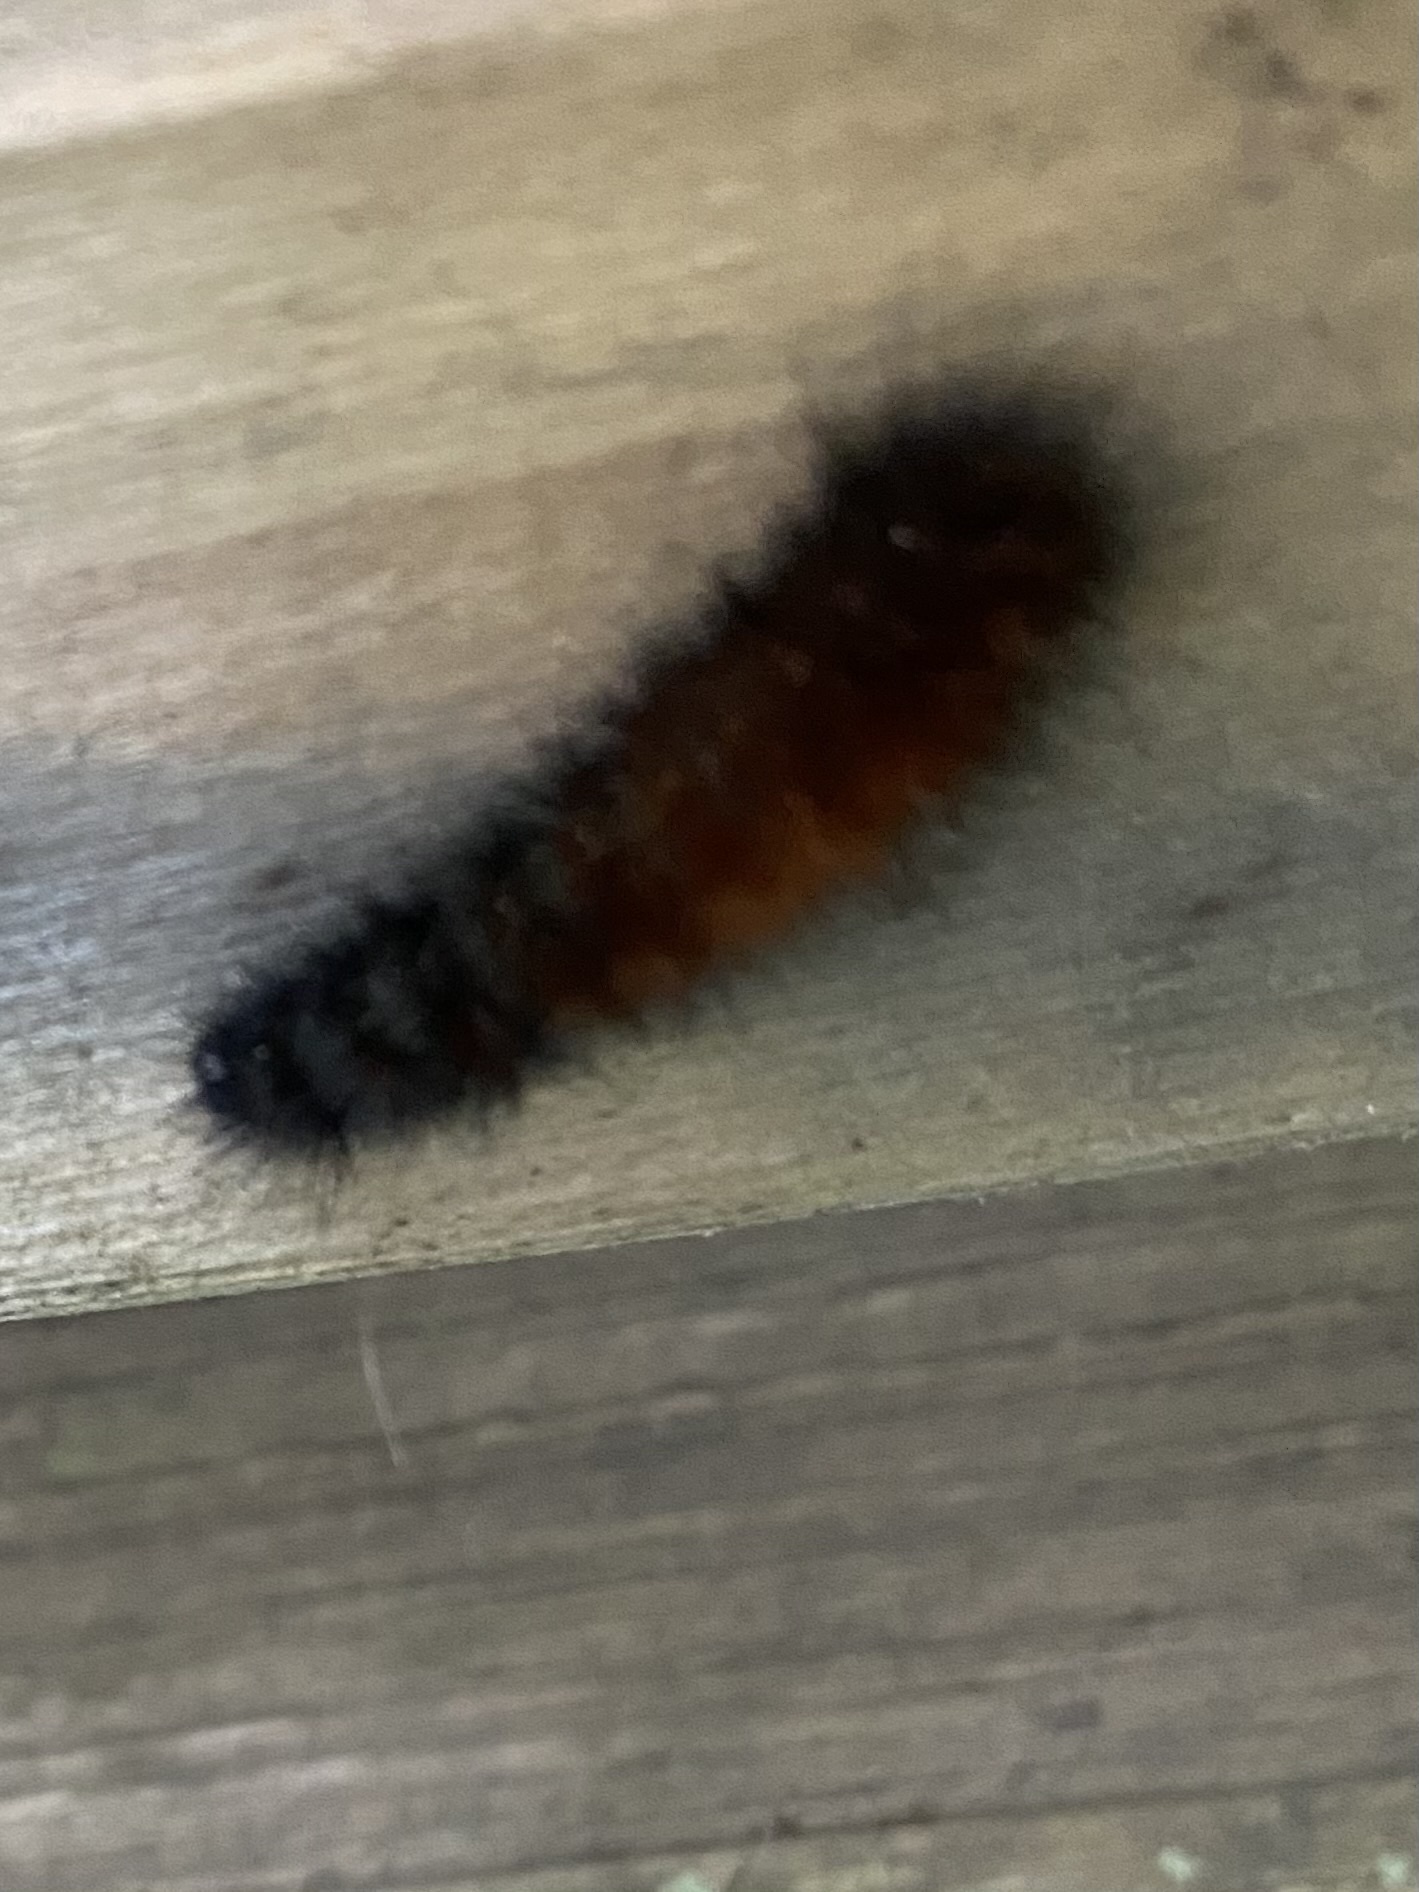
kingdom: Animalia
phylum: Arthropoda
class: Insecta
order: Lepidoptera
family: Erebidae
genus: Pyrrharctia
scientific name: Pyrrharctia isabella
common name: Isabella tiger moth
